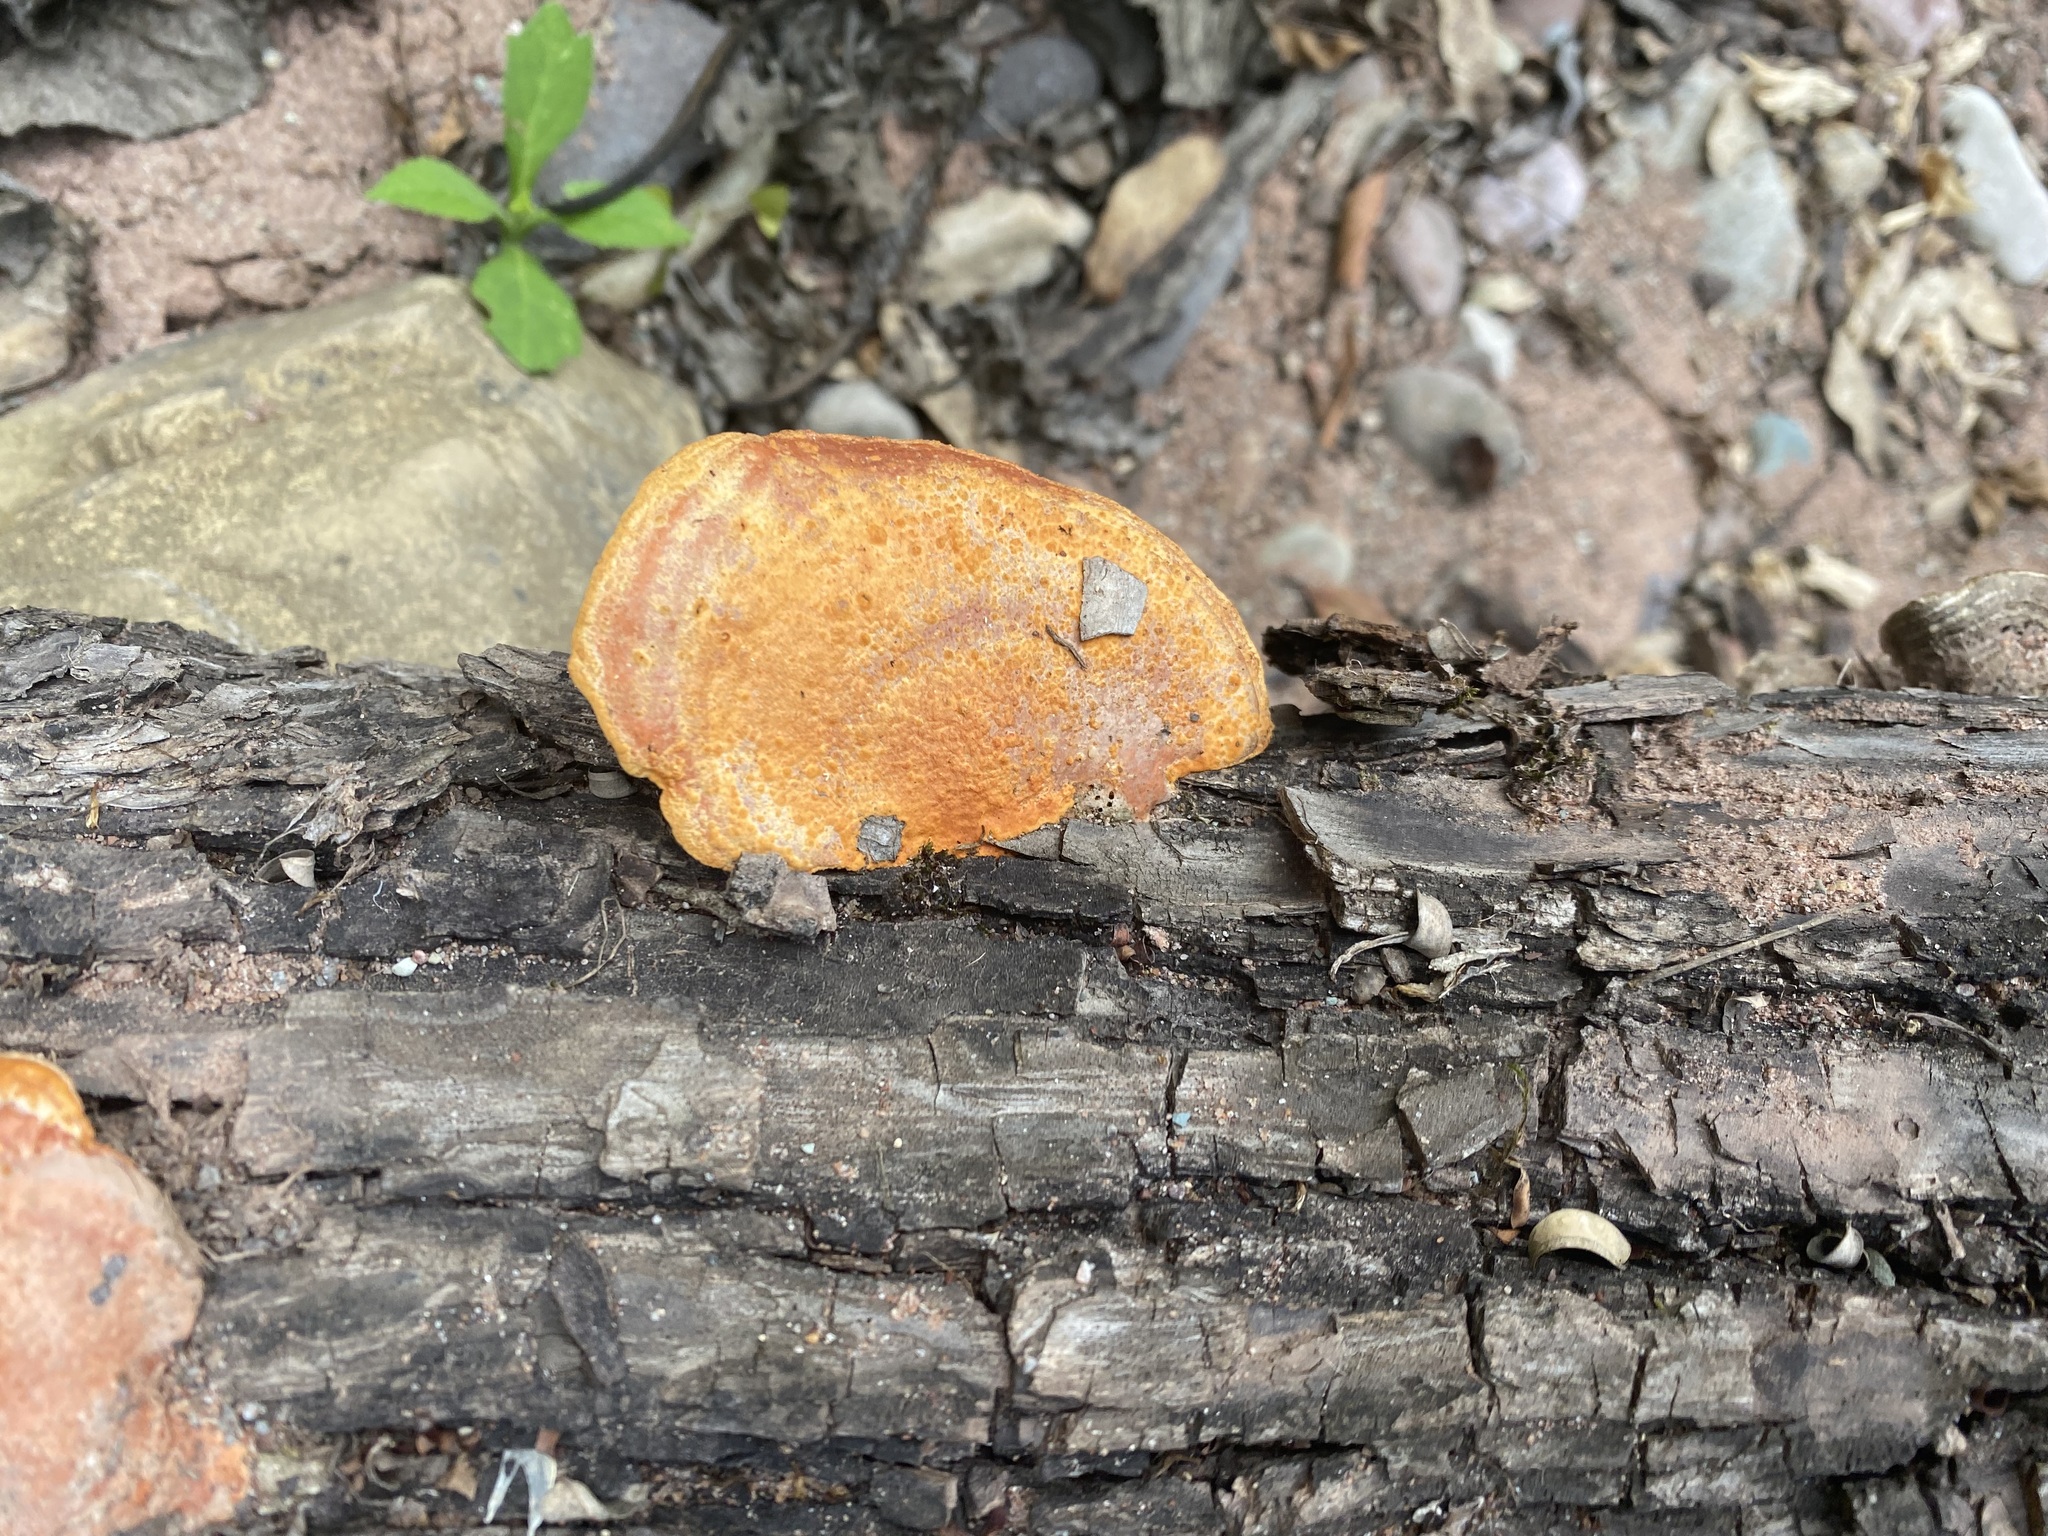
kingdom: Fungi
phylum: Basidiomycota
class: Agaricomycetes
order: Polyporales
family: Polyporaceae
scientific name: Polyporaceae
